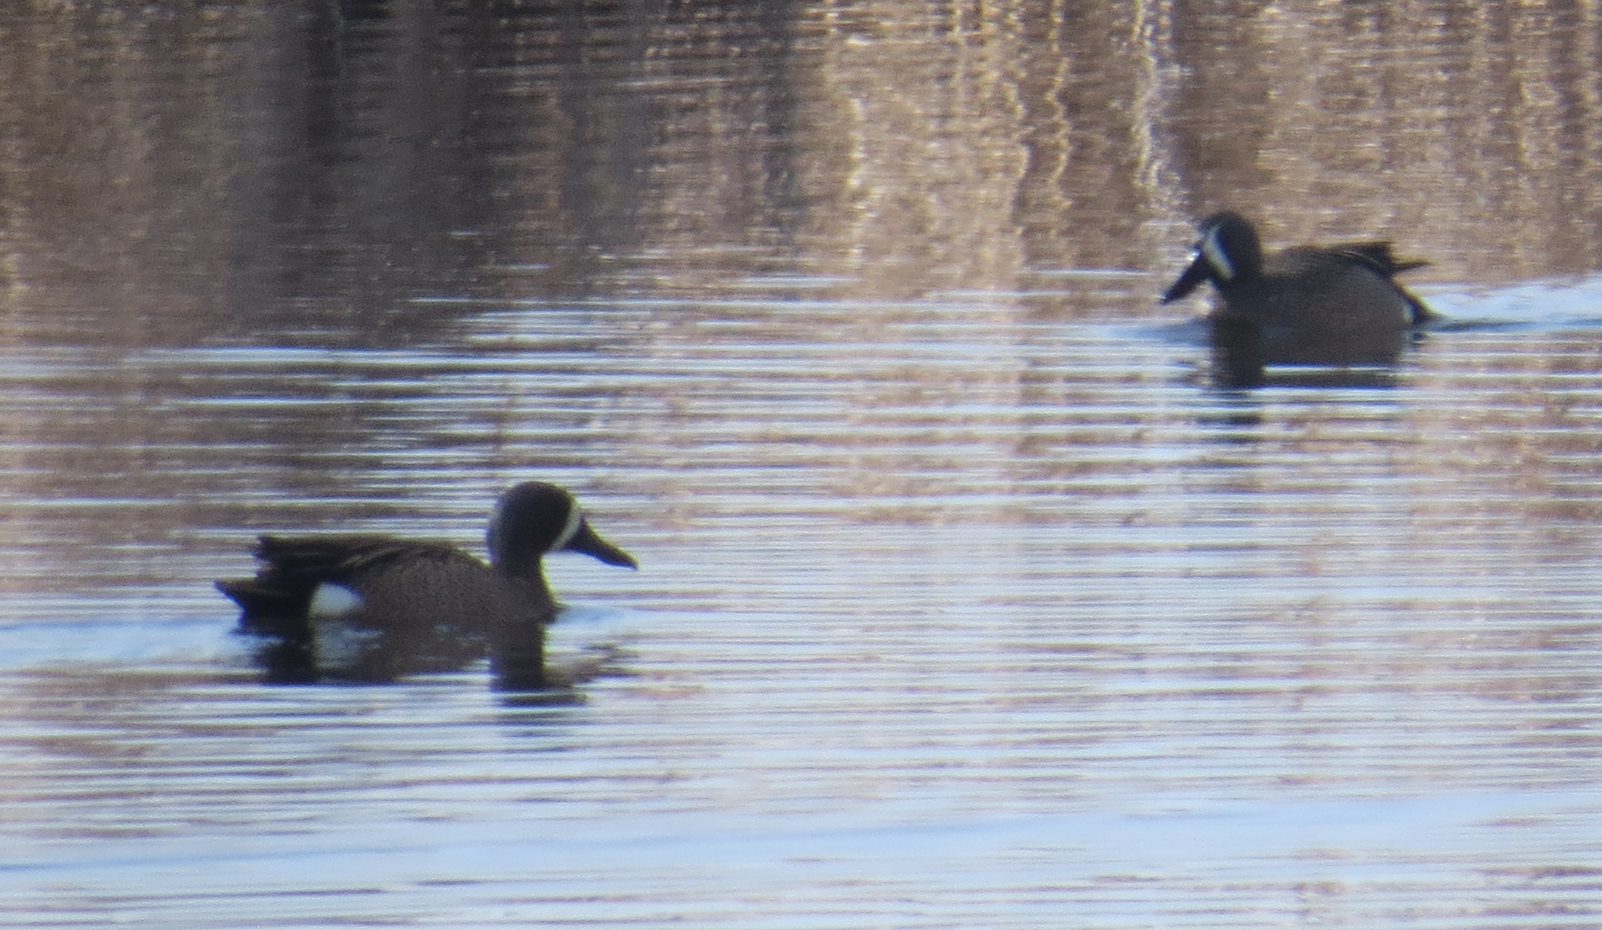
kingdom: Animalia
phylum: Chordata
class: Aves
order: Anseriformes
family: Anatidae
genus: Spatula
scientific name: Spatula discors
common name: Blue-winged teal
